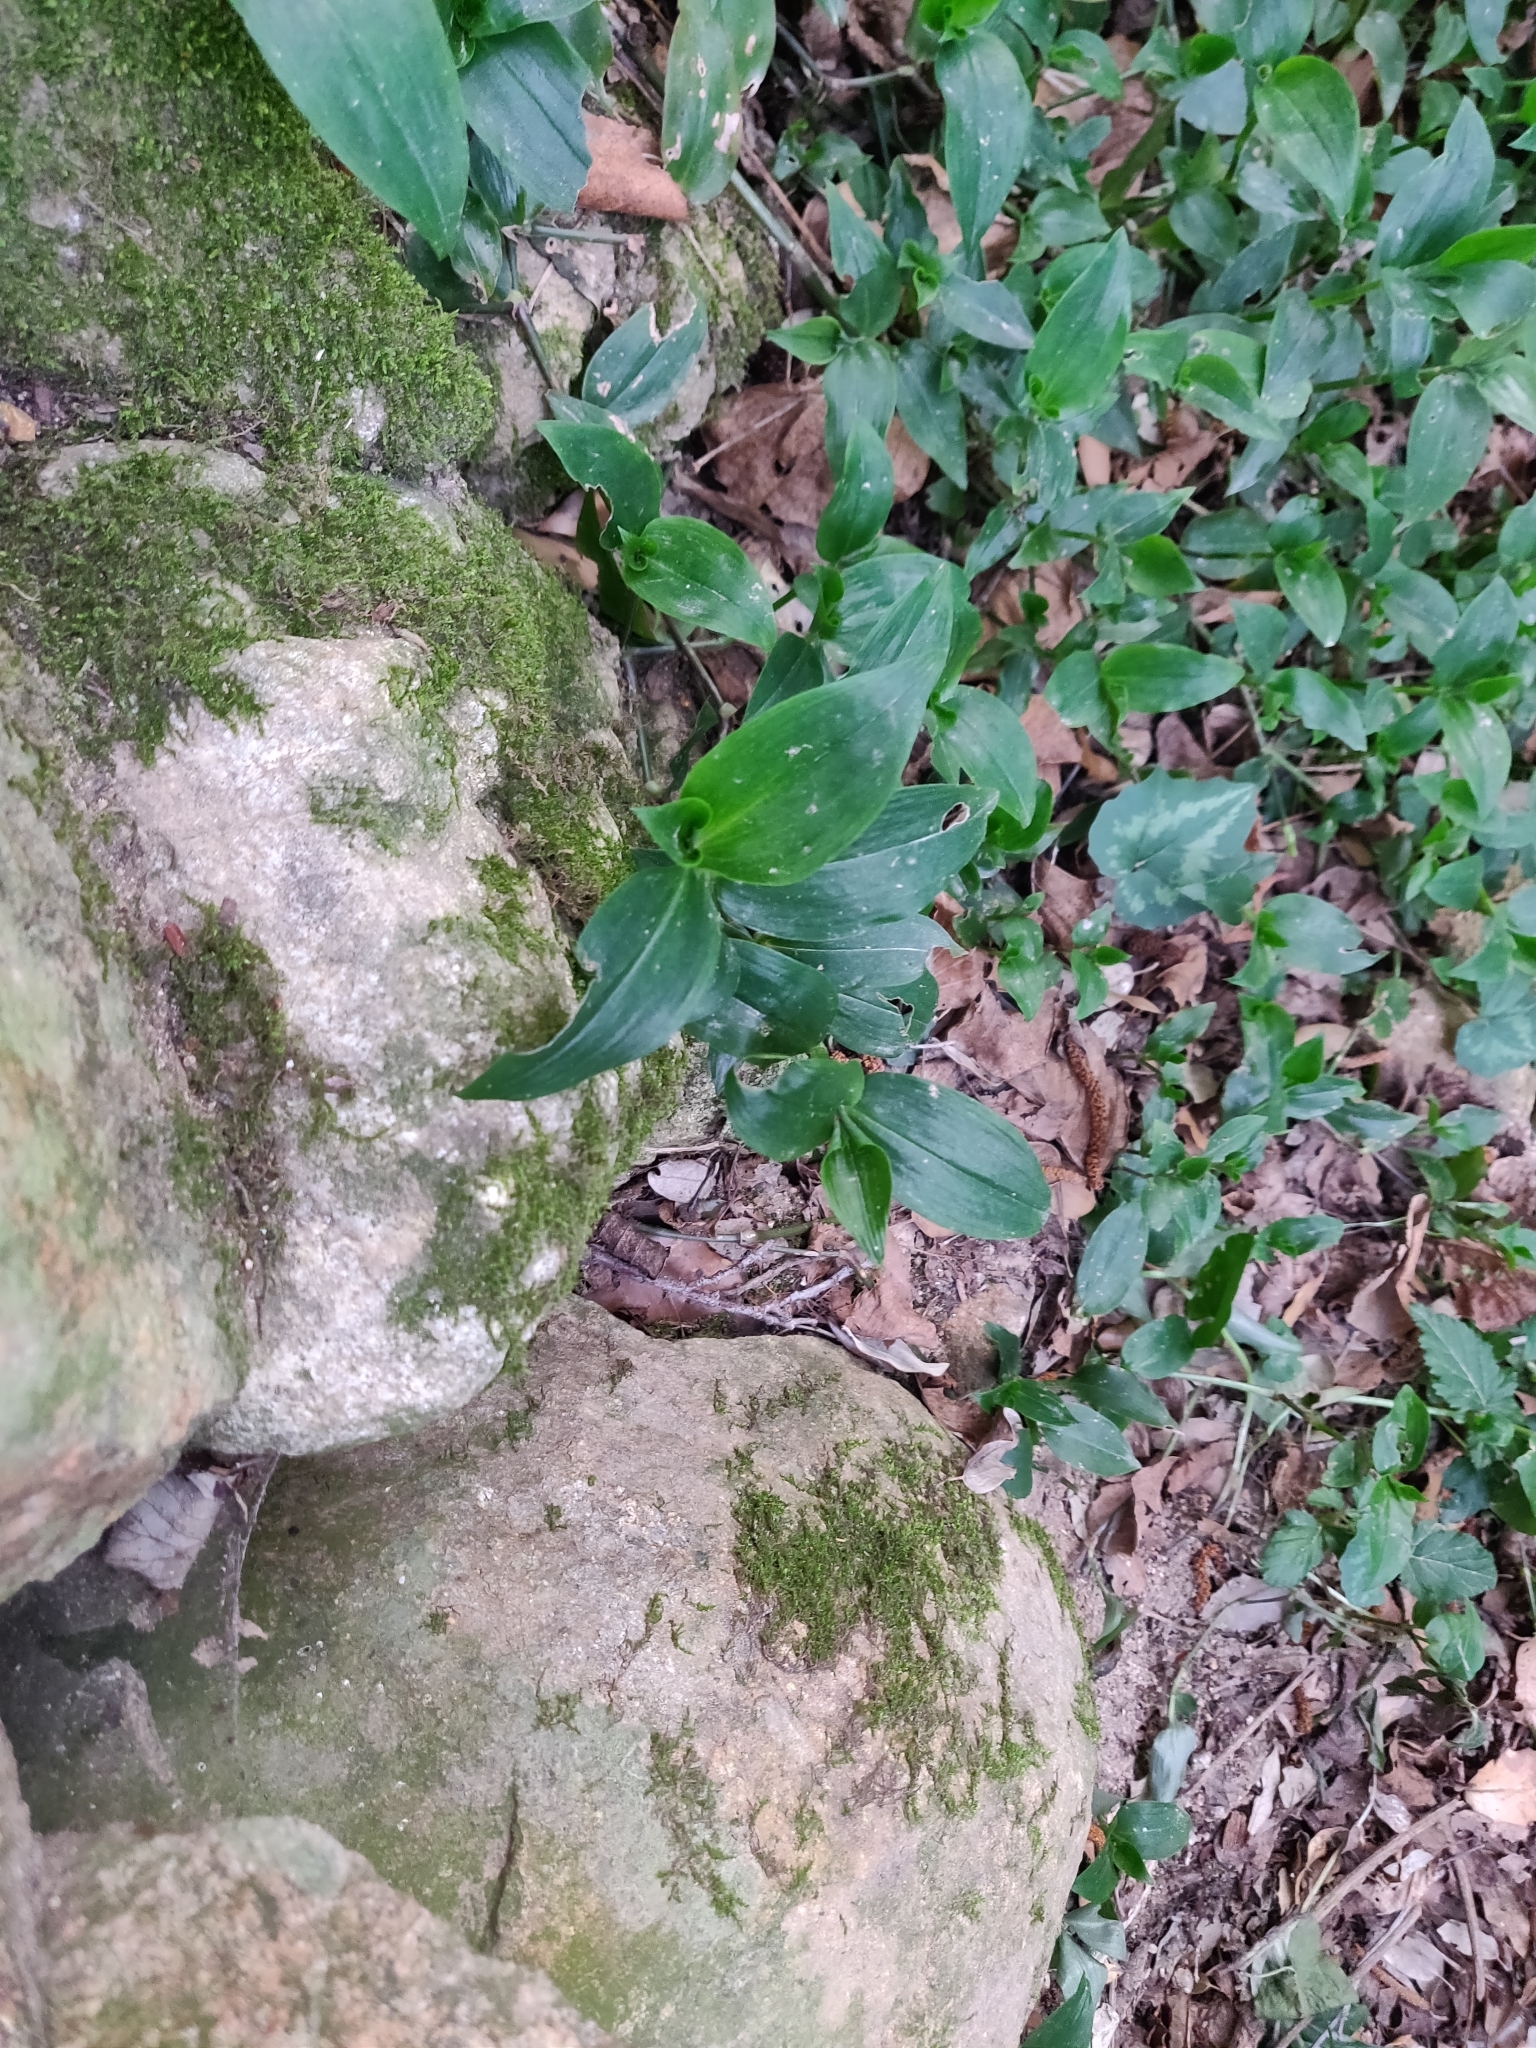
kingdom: Plantae
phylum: Tracheophyta
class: Liliopsida
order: Commelinales
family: Commelinaceae
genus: Tradescantia
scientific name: Tradescantia fluminensis
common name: Wandering-jew
